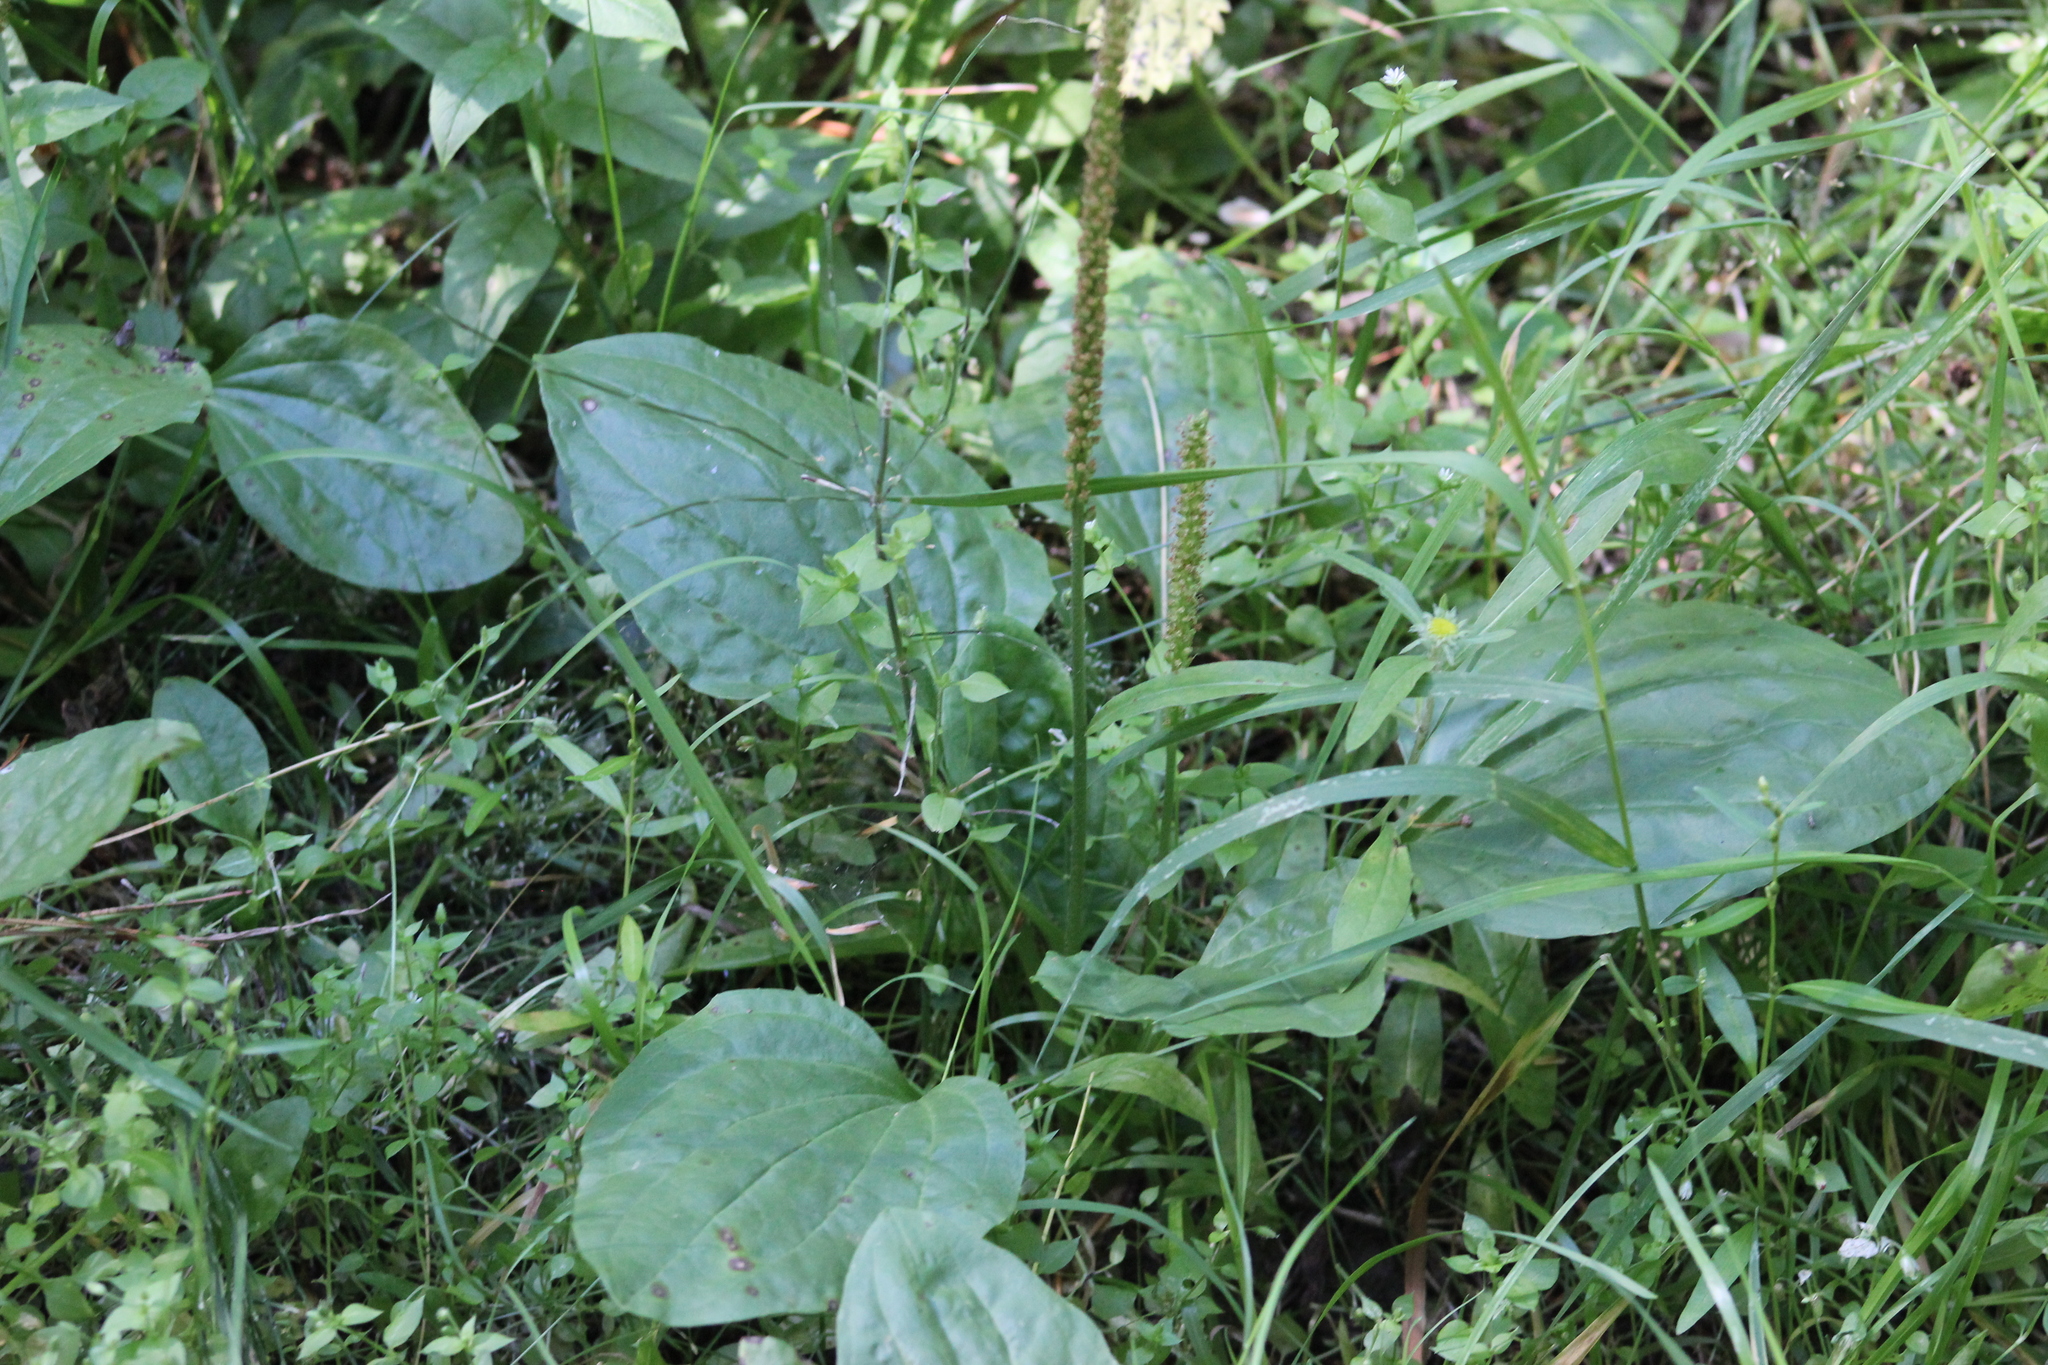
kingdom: Plantae
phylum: Tracheophyta
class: Magnoliopsida
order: Lamiales
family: Plantaginaceae
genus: Plantago
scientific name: Plantago major
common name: Common plantain
